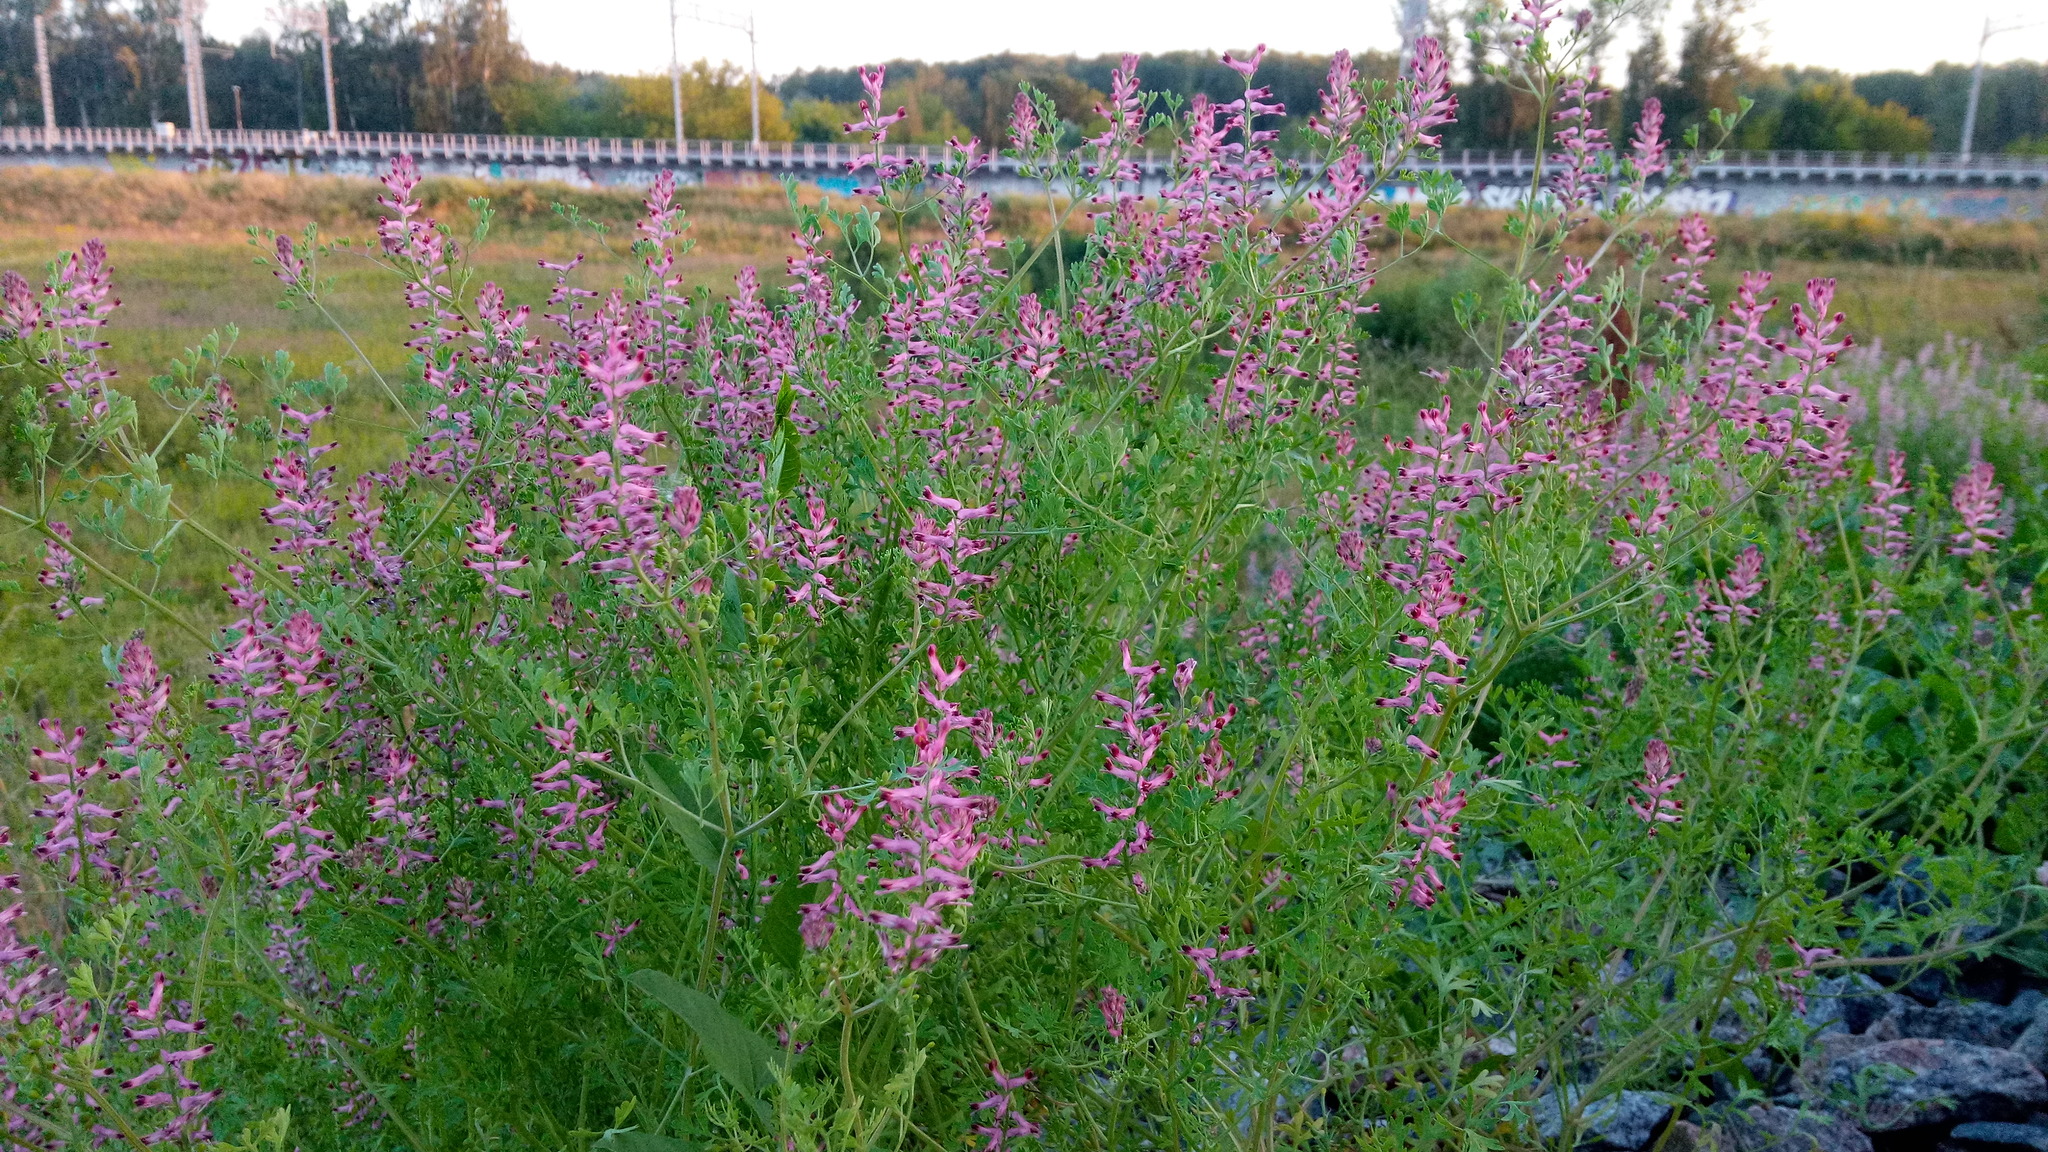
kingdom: Plantae
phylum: Tracheophyta
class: Magnoliopsida
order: Ranunculales
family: Papaveraceae
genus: Fumaria
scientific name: Fumaria officinalis
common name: Common fumitory
